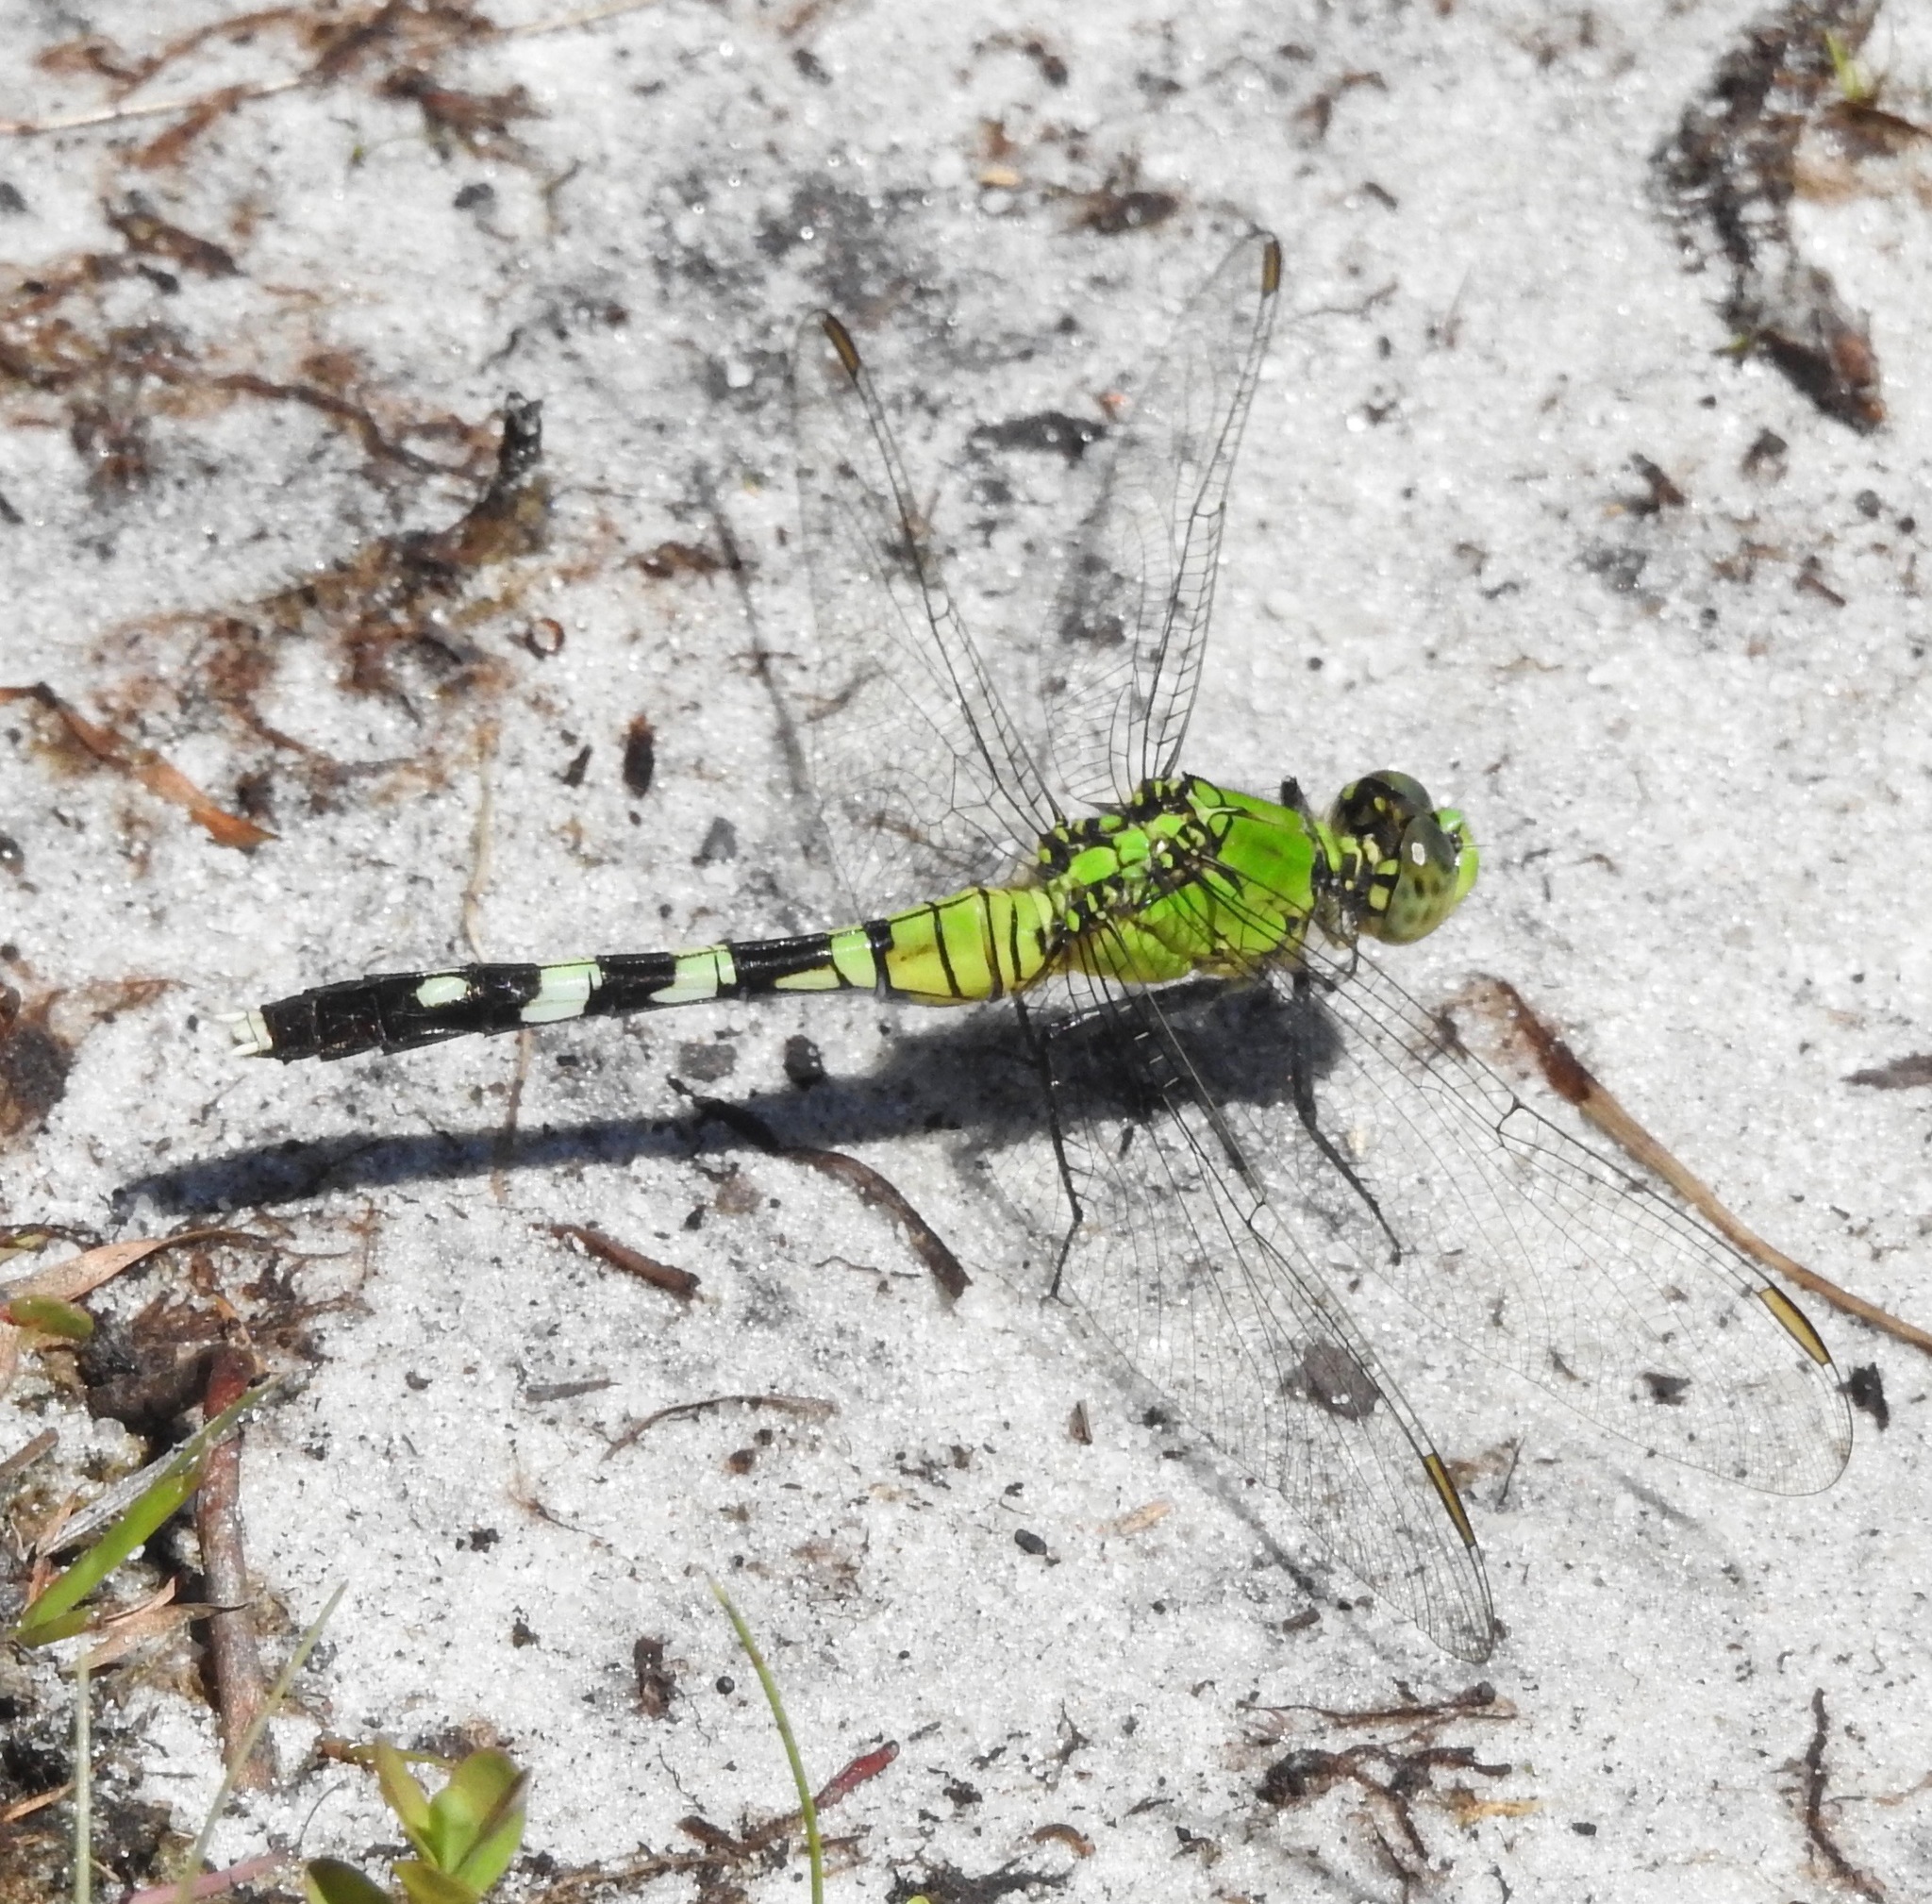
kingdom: Animalia
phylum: Arthropoda
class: Insecta
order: Odonata
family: Libellulidae
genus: Erythemis
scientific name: Erythemis simplicicollis
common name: Eastern pondhawk
